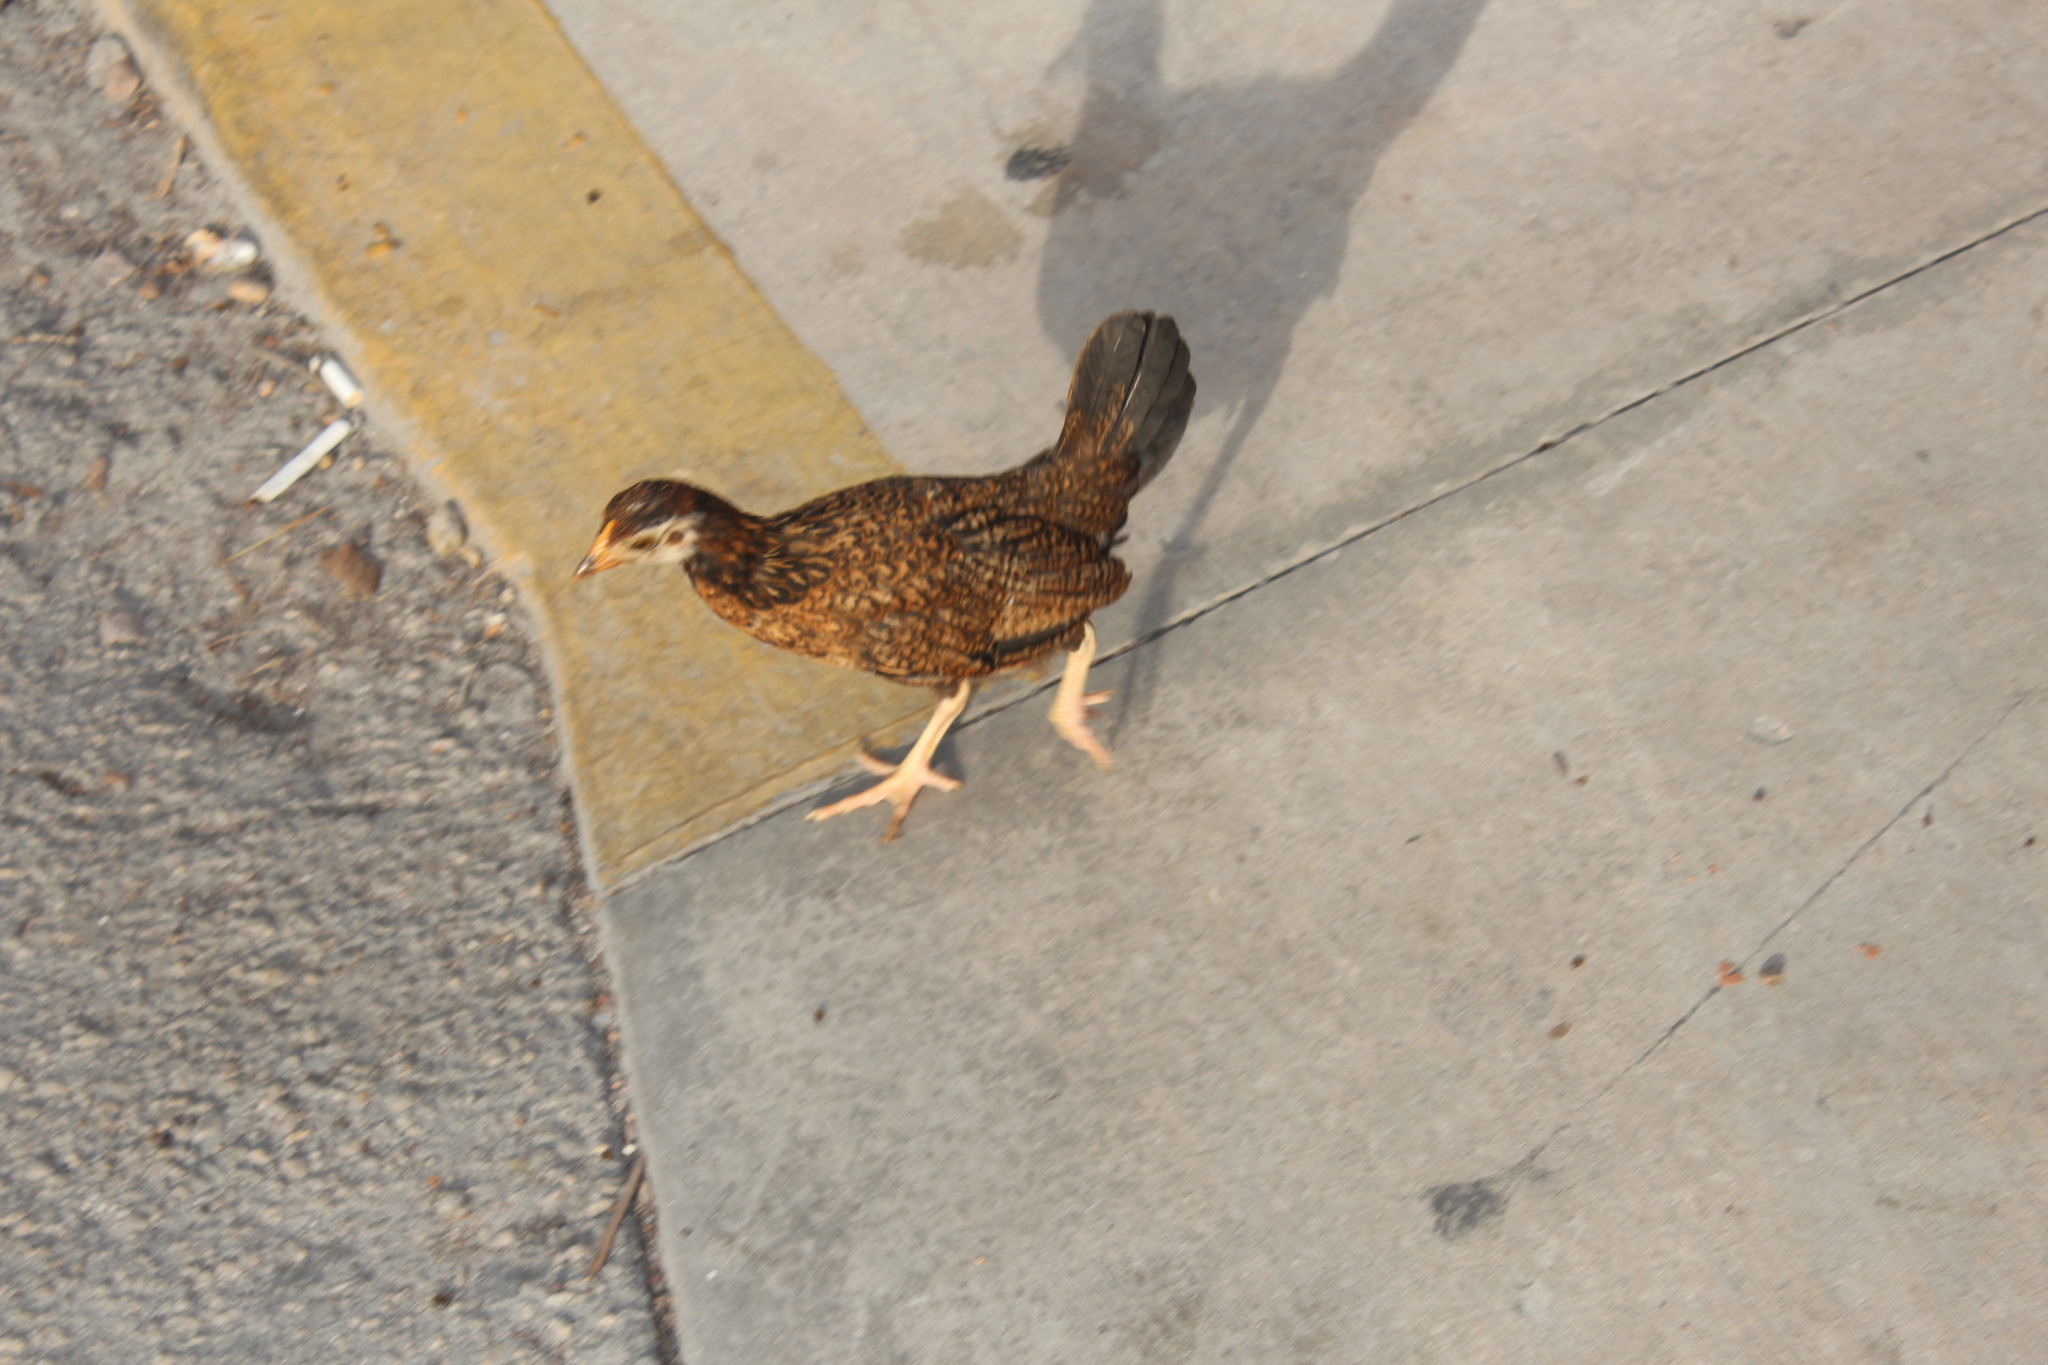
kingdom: Animalia
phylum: Chordata
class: Aves
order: Galliformes
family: Phasianidae
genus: Gallus
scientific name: Gallus gallus
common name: Red junglefowl
